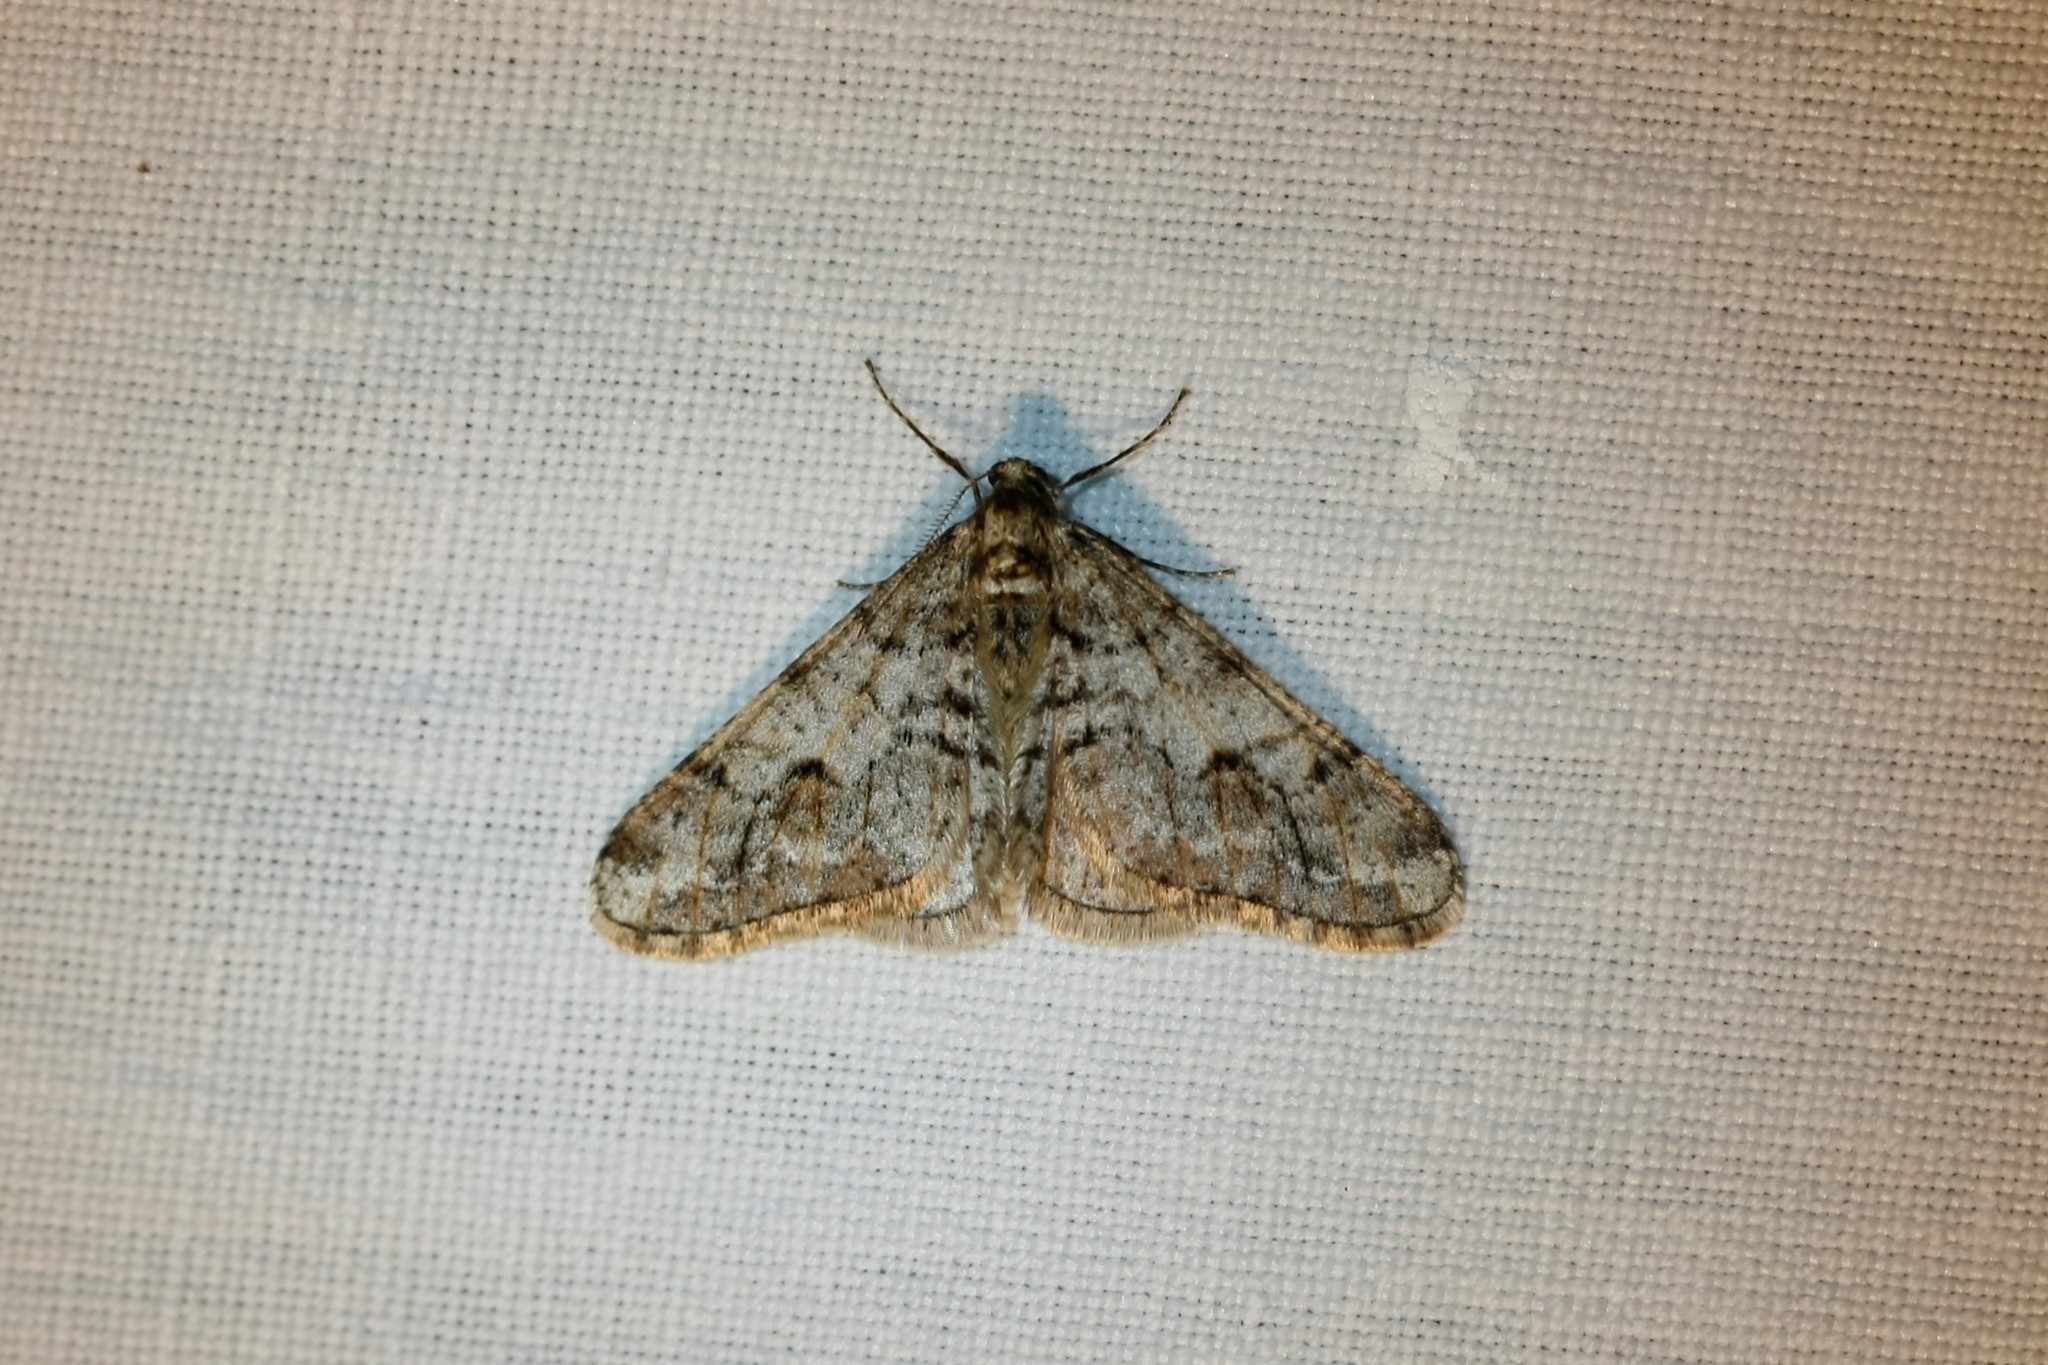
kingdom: Animalia
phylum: Arthropoda
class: Insecta
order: Lepidoptera
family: Geometridae
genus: Agriopis
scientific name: Agriopis leucophaearia
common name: Spring usher
